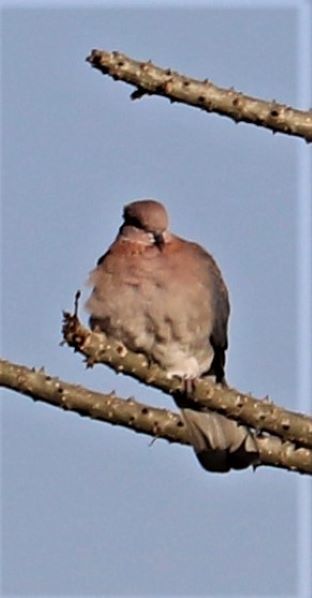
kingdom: Animalia
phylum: Chordata
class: Aves
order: Columbiformes
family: Columbidae
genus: Spilopelia
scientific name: Spilopelia senegalensis
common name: Laughing dove
